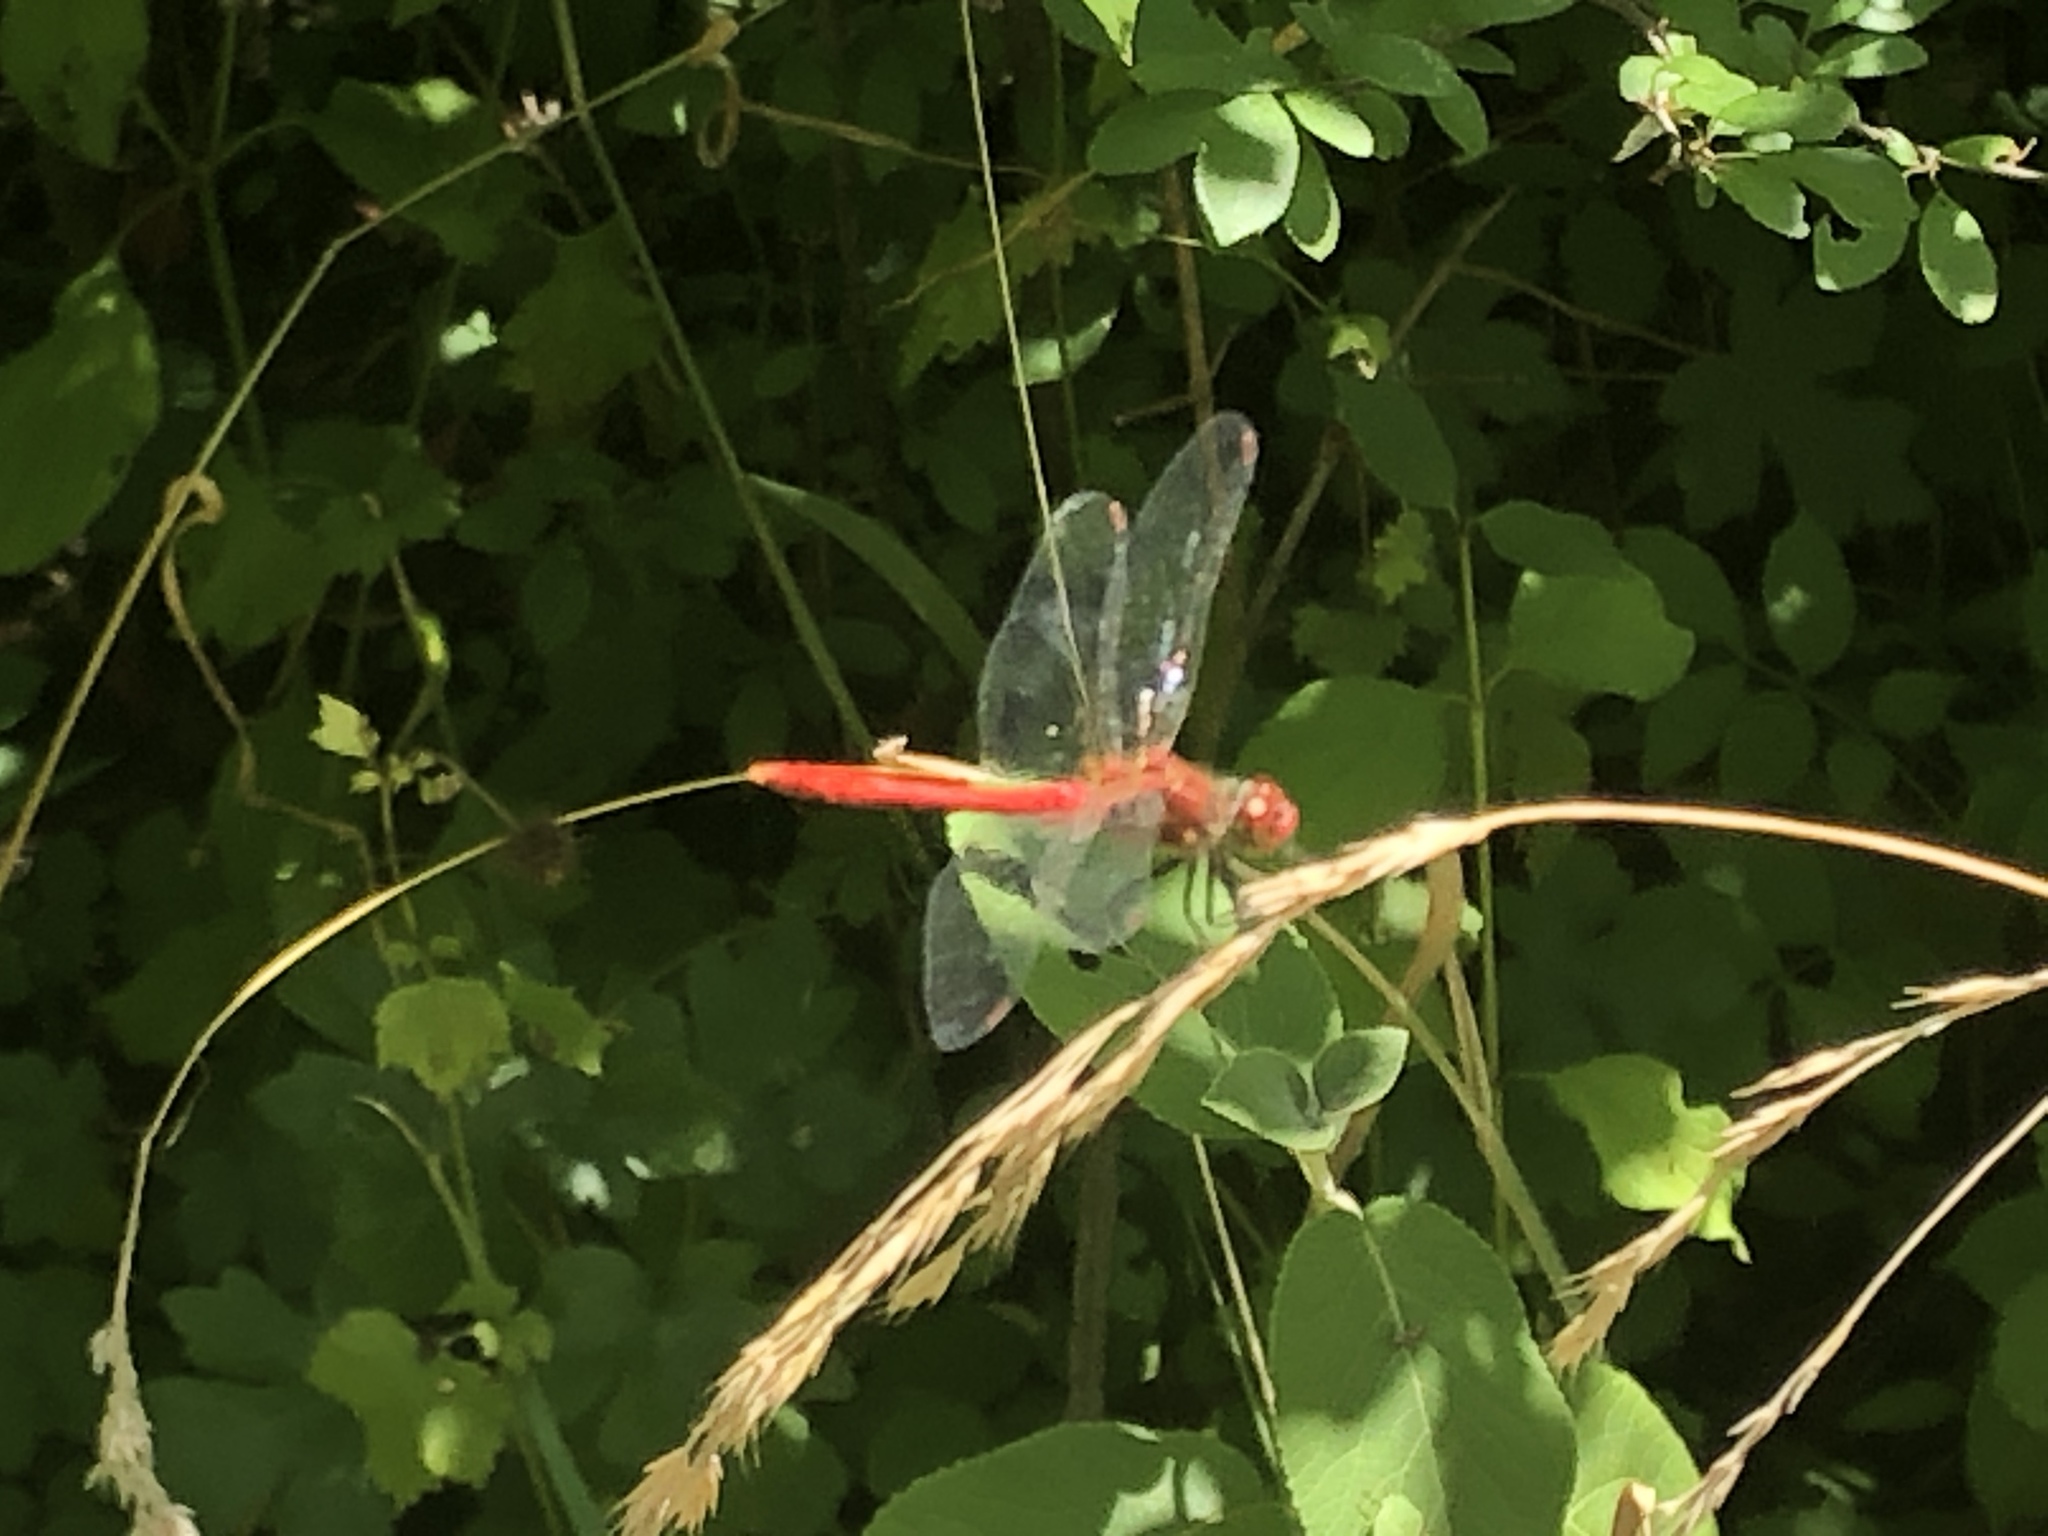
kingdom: Animalia
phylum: Arthropoda
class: Insecta
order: Odonata
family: Libellulidae
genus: Sympetrum
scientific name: Sympetrum sanguineum
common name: Ruddy darter
